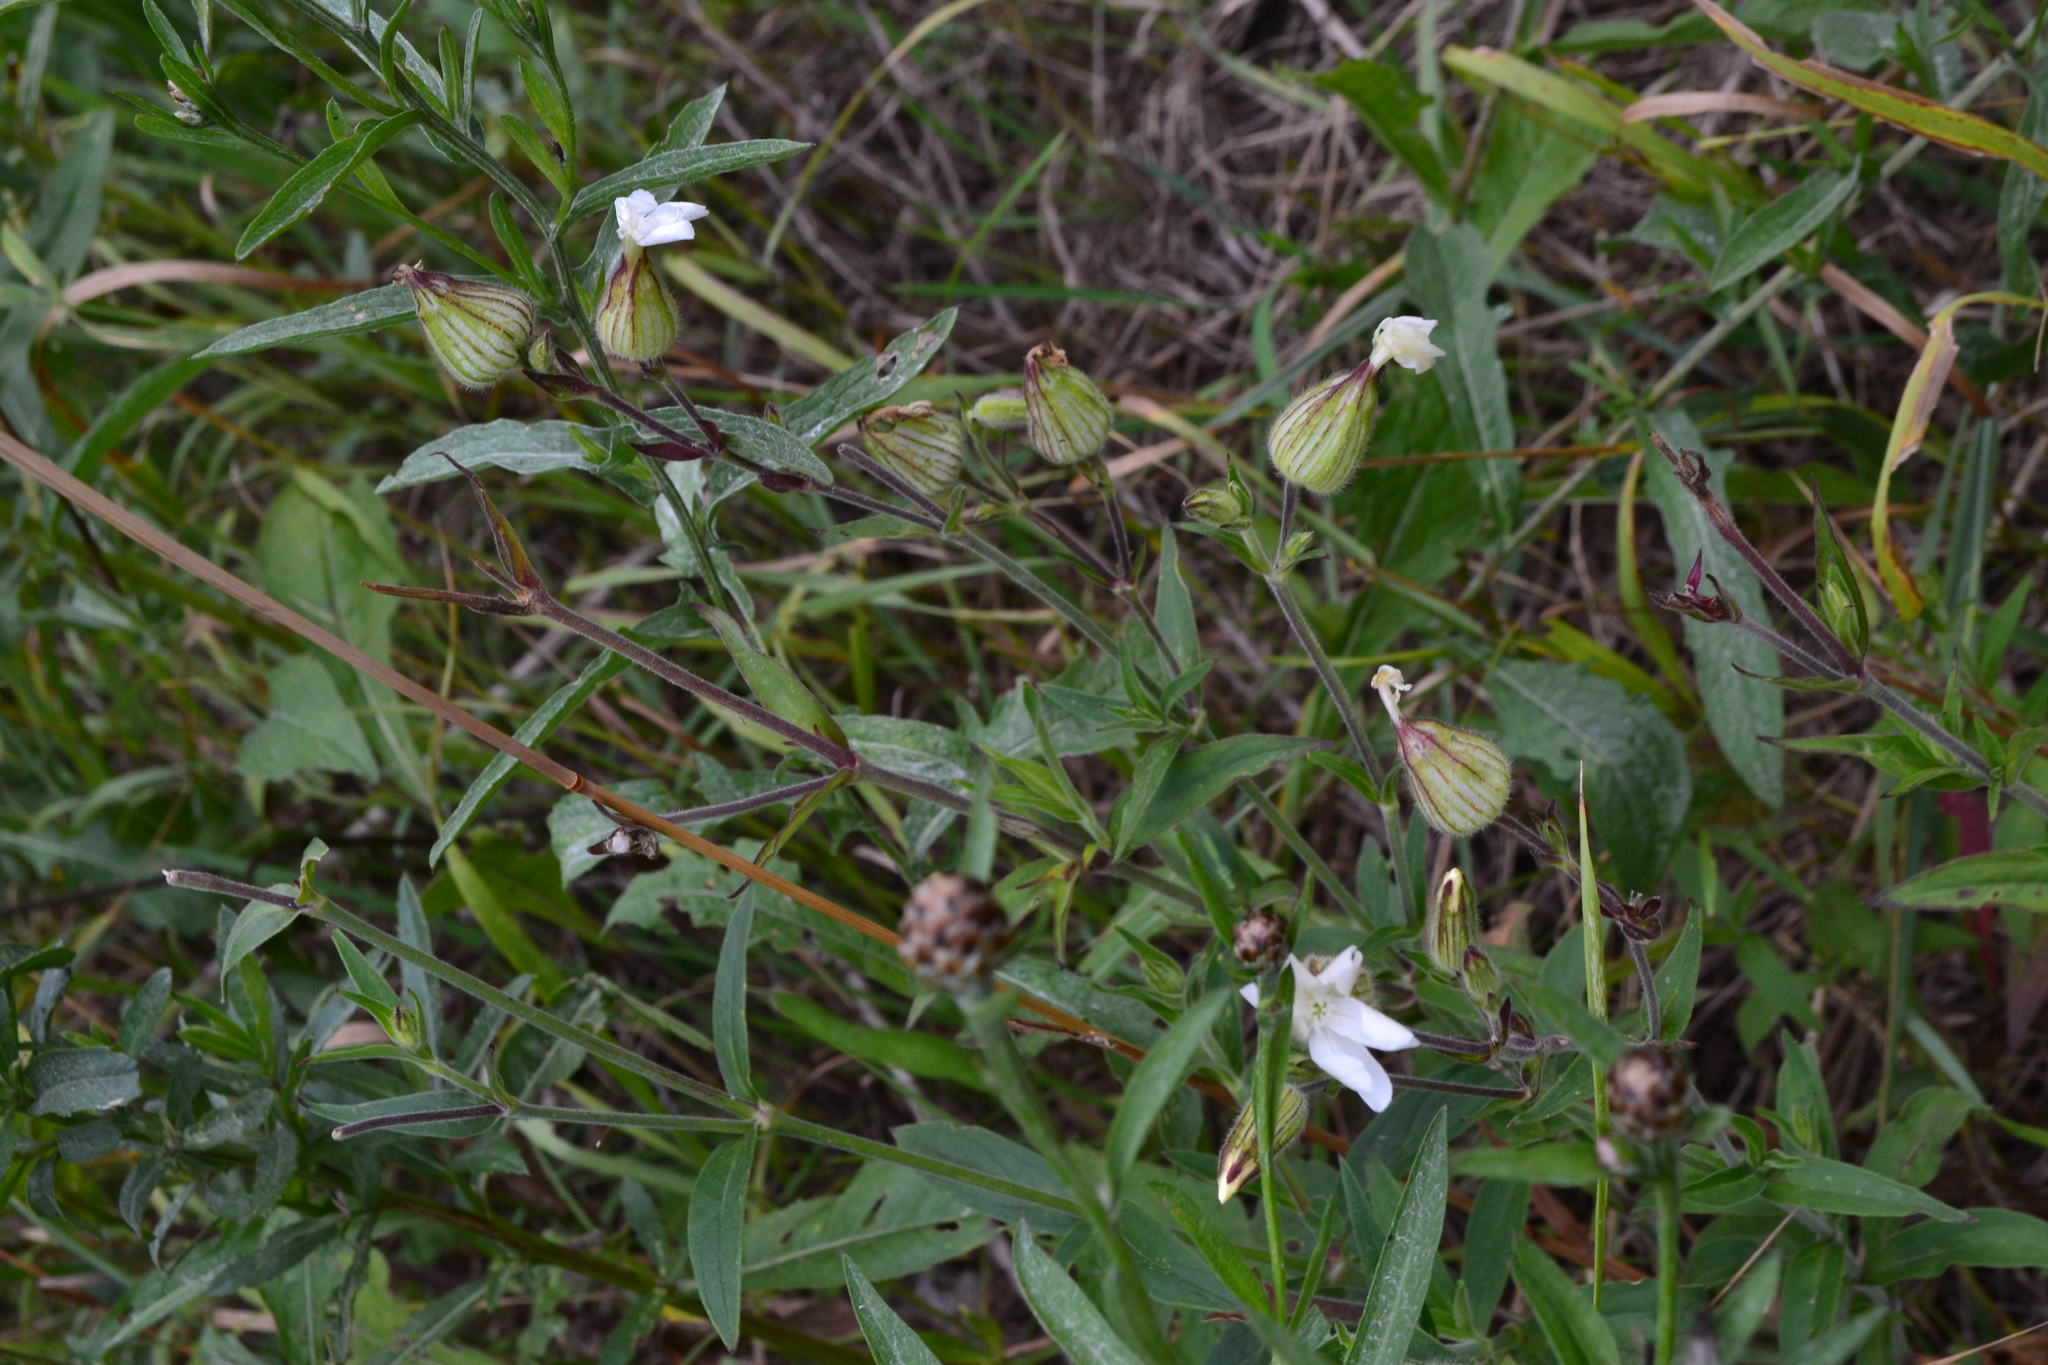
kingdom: Plantae
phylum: Tracheophyta
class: Magnoliopsida
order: Caryophyllales
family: Caryophyllaceae
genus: Silene
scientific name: Silene latifolia
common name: White campion
